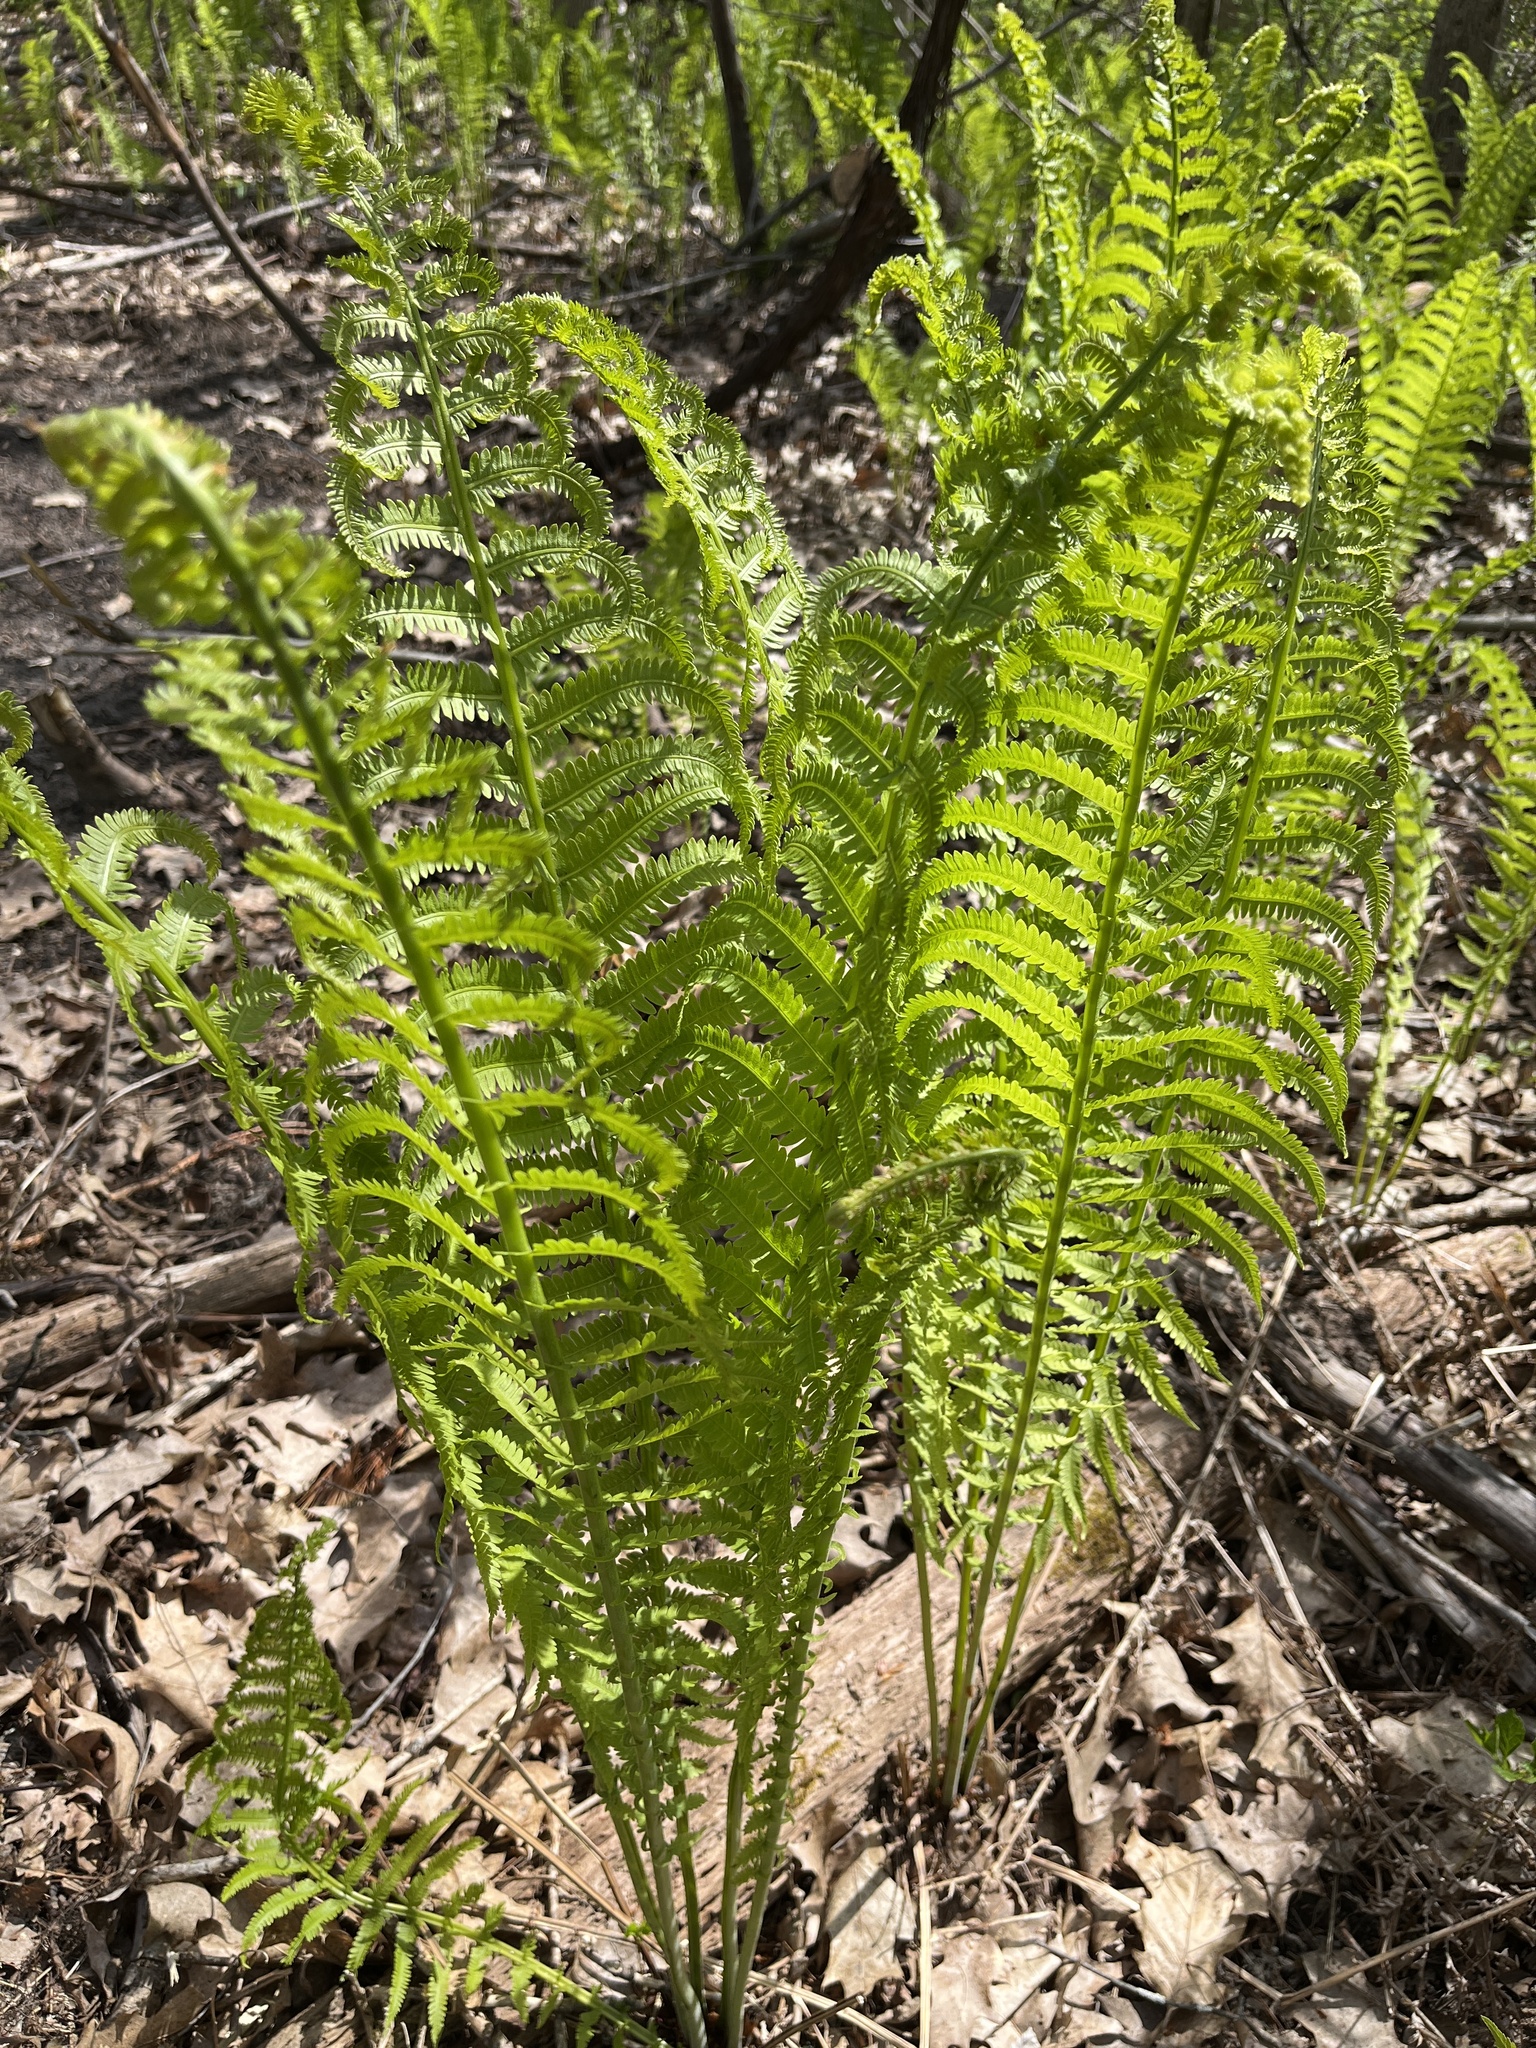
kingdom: Plantae
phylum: Tracheophyta
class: Polypodiopsida
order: Polypodiales
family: Onocleaceae
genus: Matteuccia
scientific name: Matteuccia struthiopteris
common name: Ostrich fern
